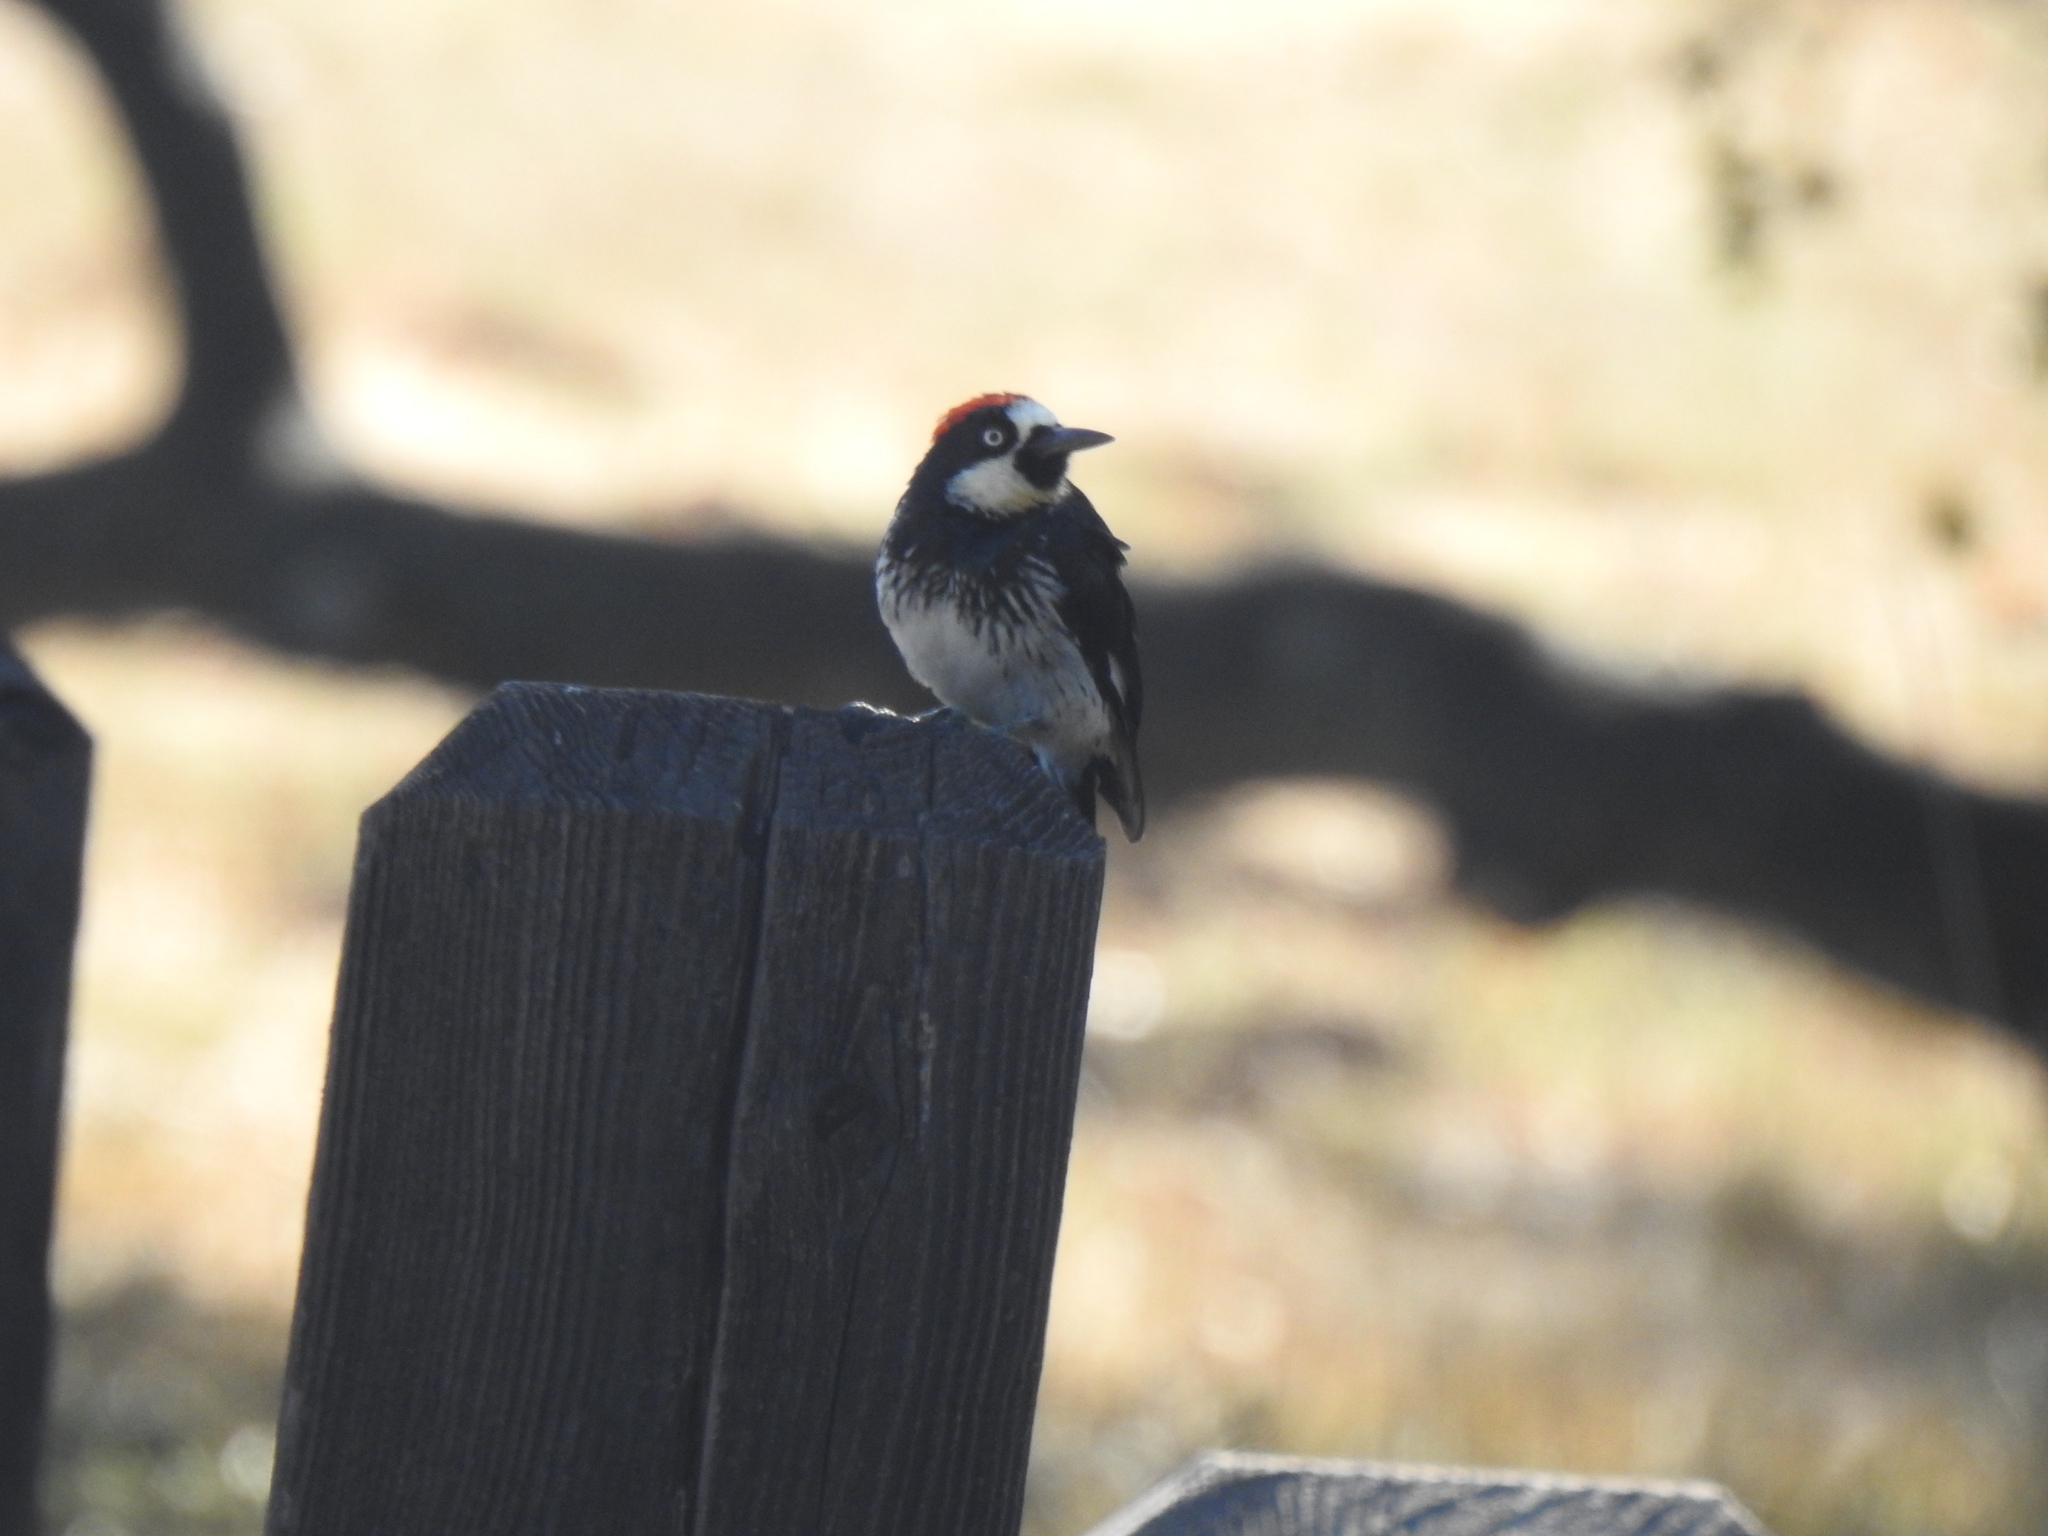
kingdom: Animalia
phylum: Chordata
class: Aves
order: Piciformes
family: Picidae
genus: Melanerpes
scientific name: Melanerpes formicivorus
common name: Acorn woodpecker
